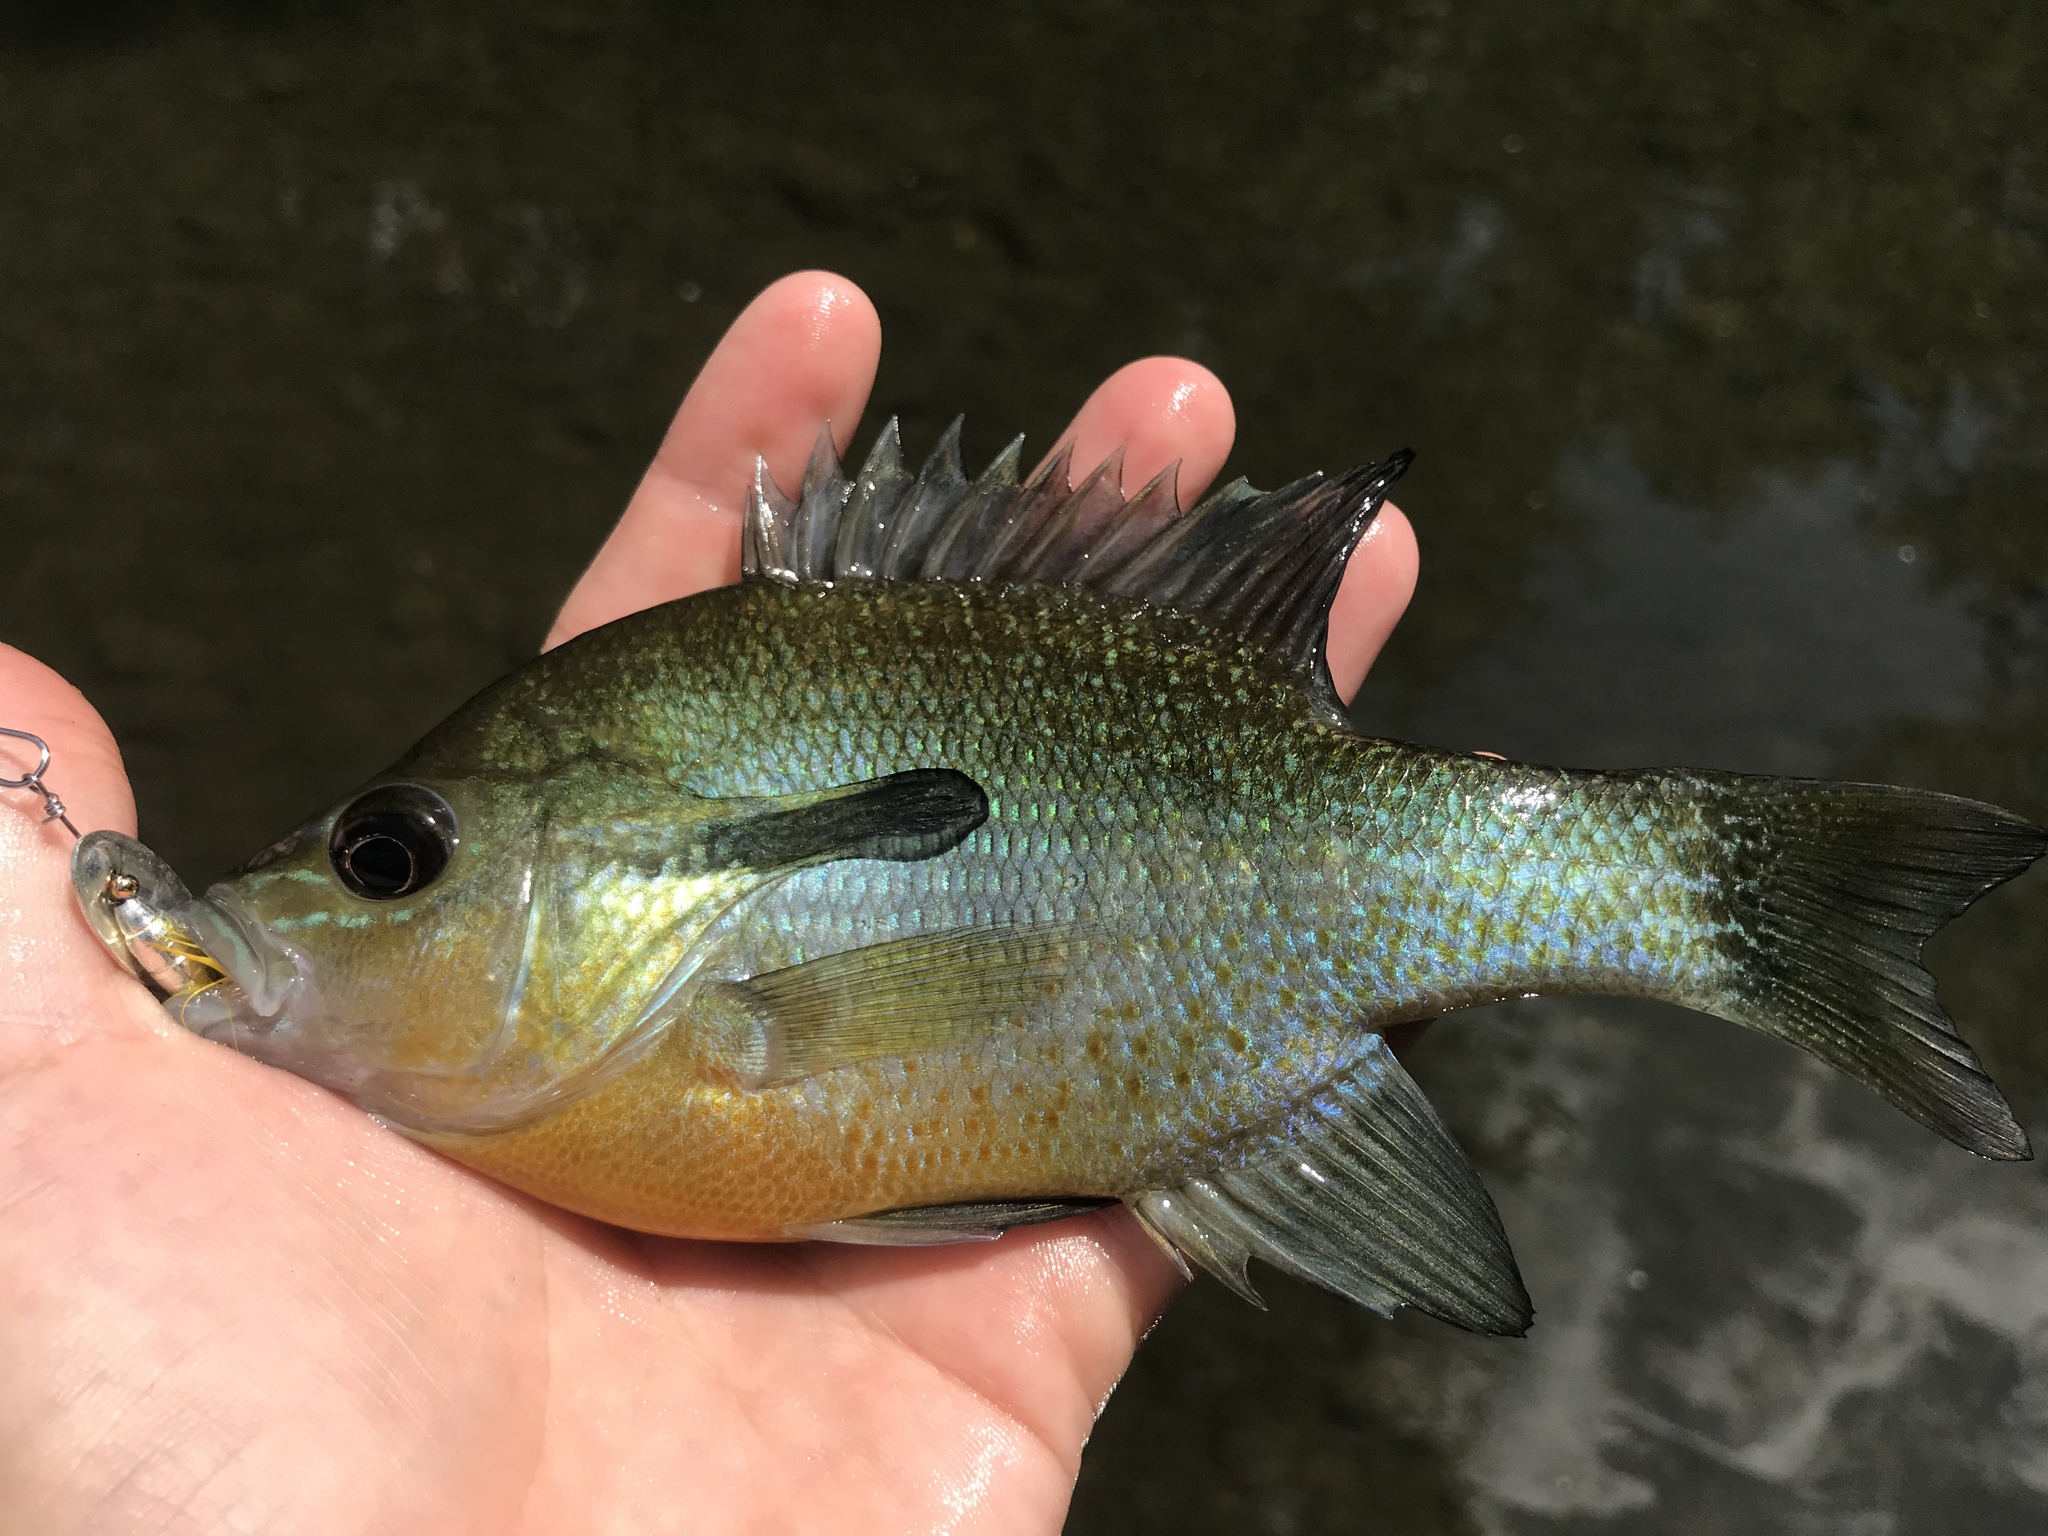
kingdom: Animalia
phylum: Chordata
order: Perciformes
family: Centrarchidae
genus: Lepomis
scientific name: Lepomis auritus
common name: Redbreast sunfish
